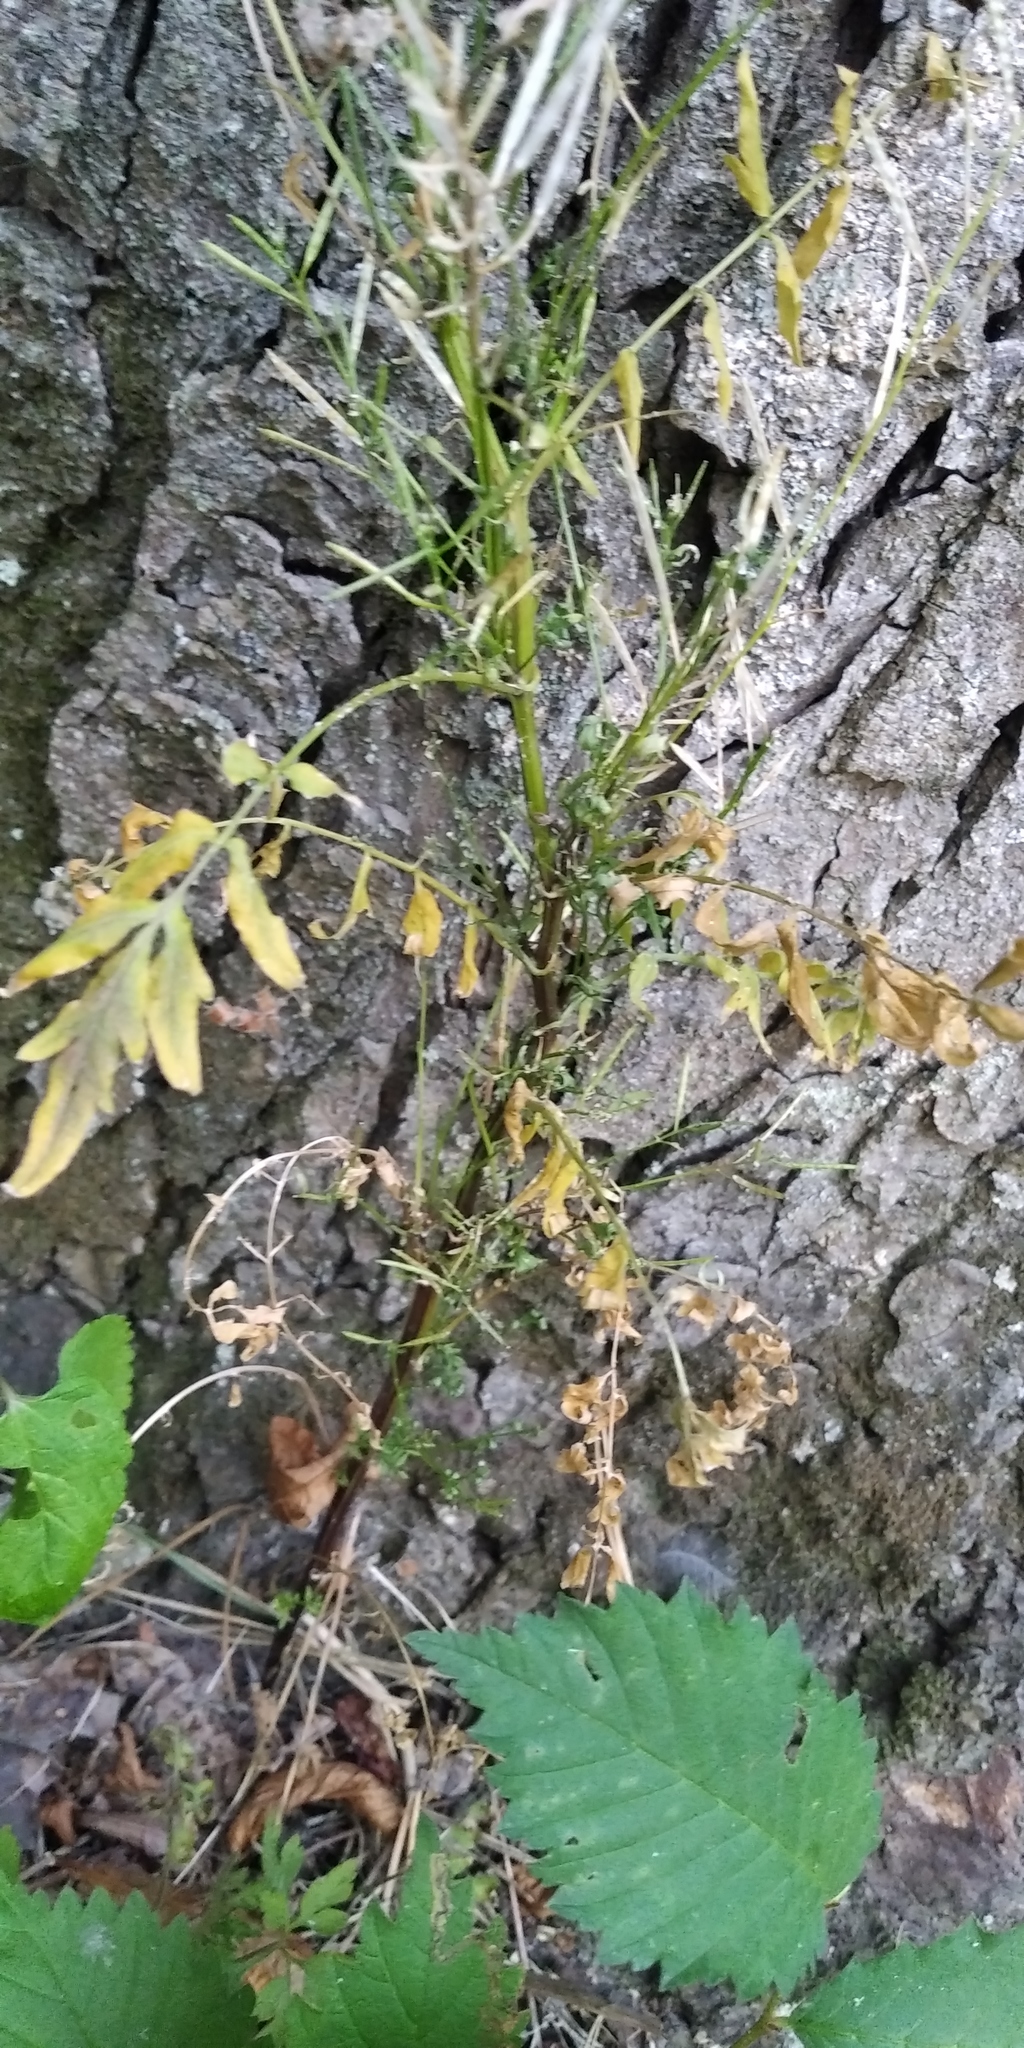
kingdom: Plantae
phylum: Tracheophyta
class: Magnoliopsida
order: Brassicales
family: Brassicaceae
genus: Cardamine
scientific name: Cardamine impatiens
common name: Narrow-leaved bitter-cress
